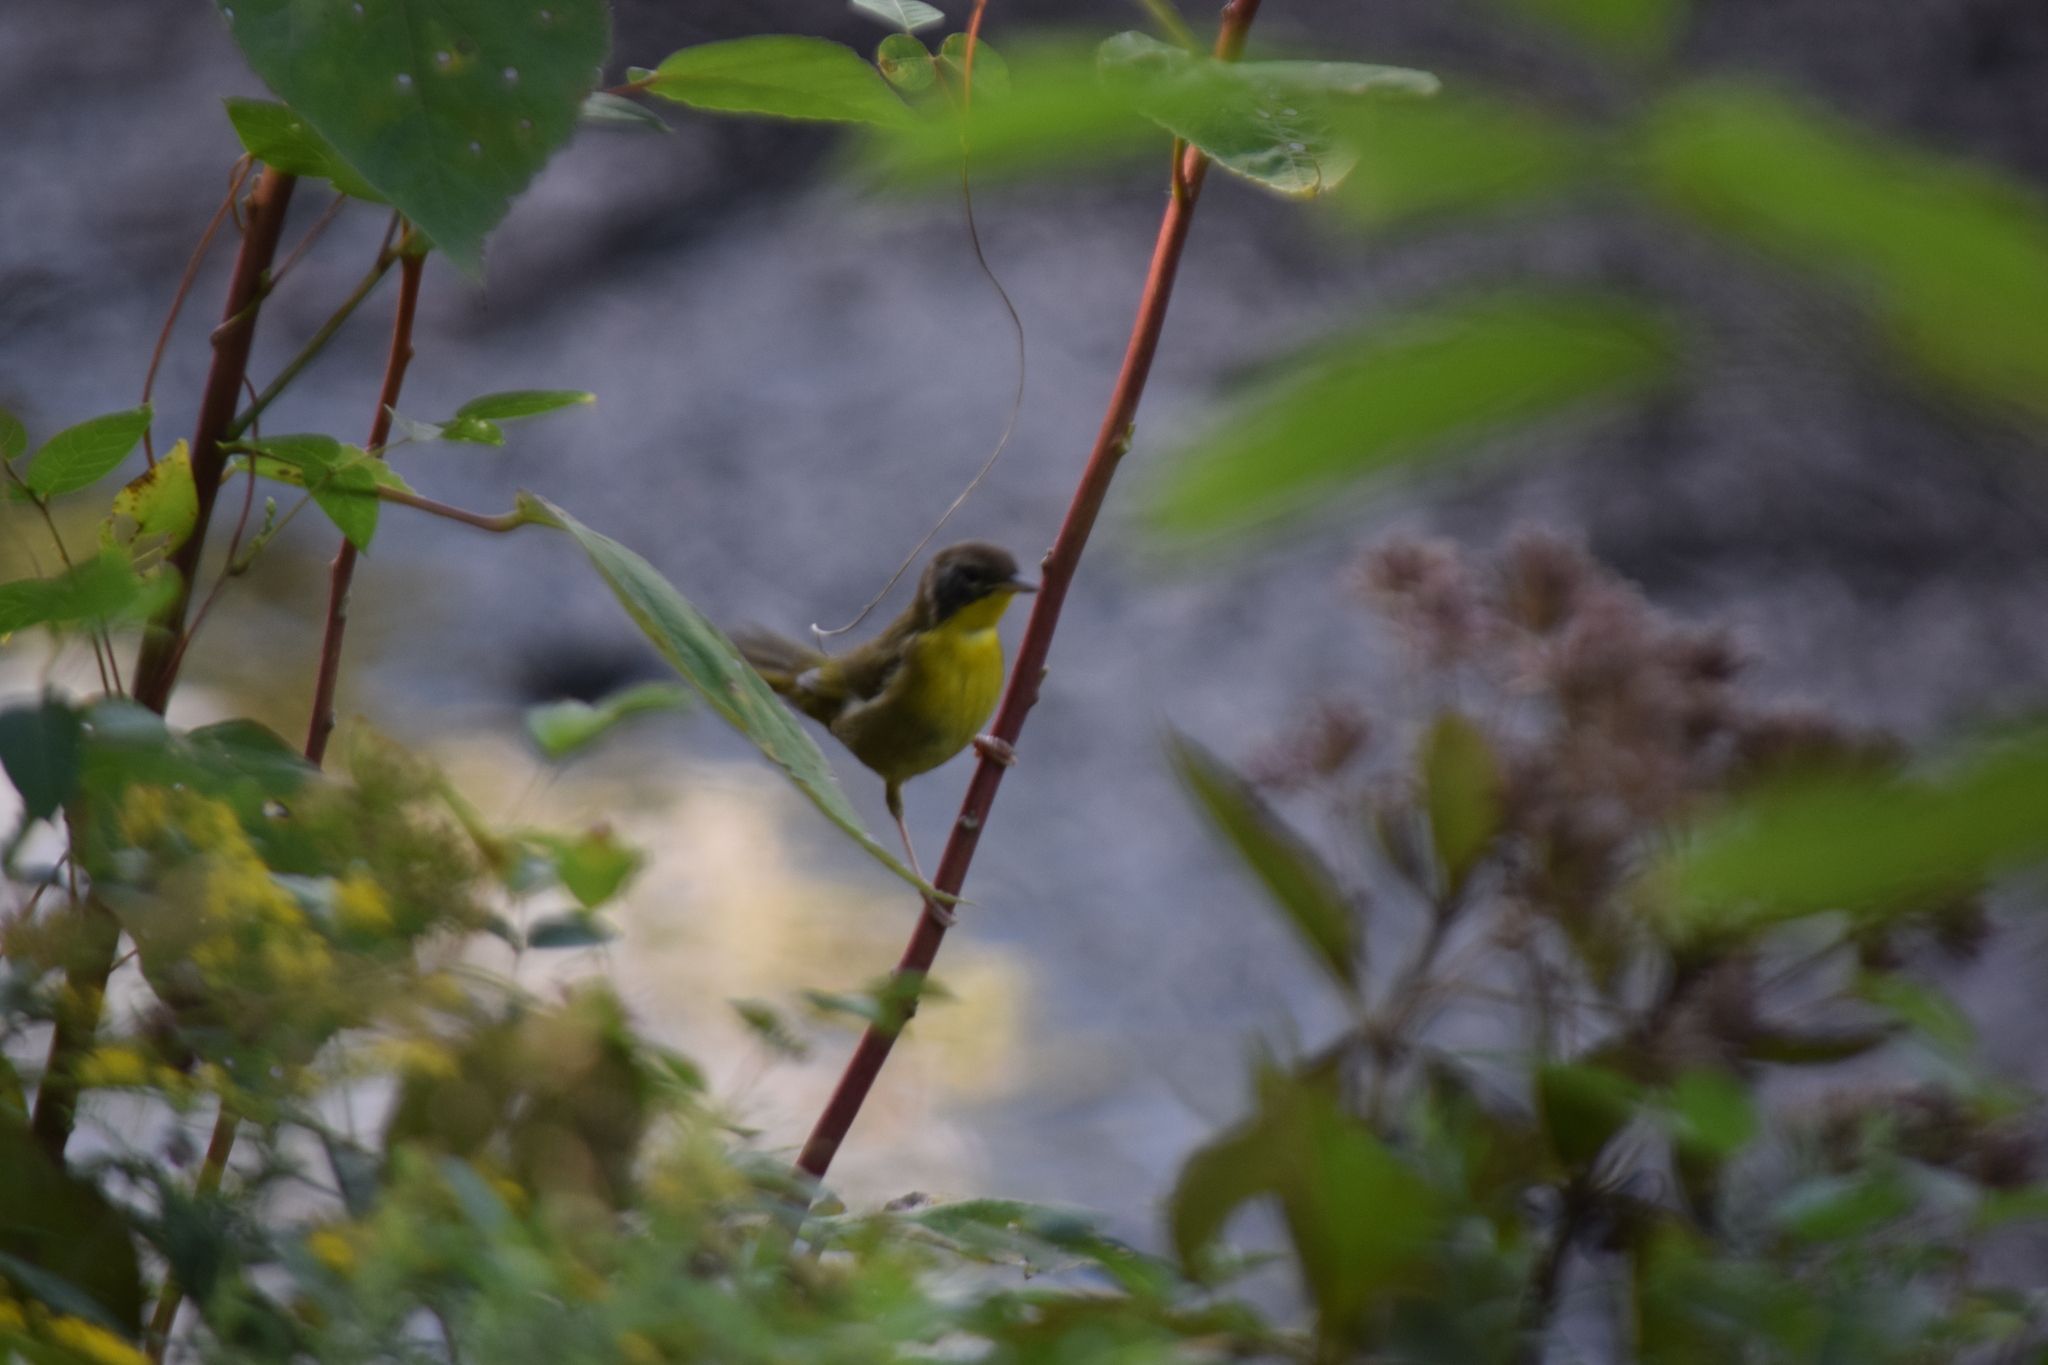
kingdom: Animalia
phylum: Chordata
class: Aves
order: Passeriformes
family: Parulidae
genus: Geothlypis
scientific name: Geothlypis trichas
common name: Common yellowthroat
